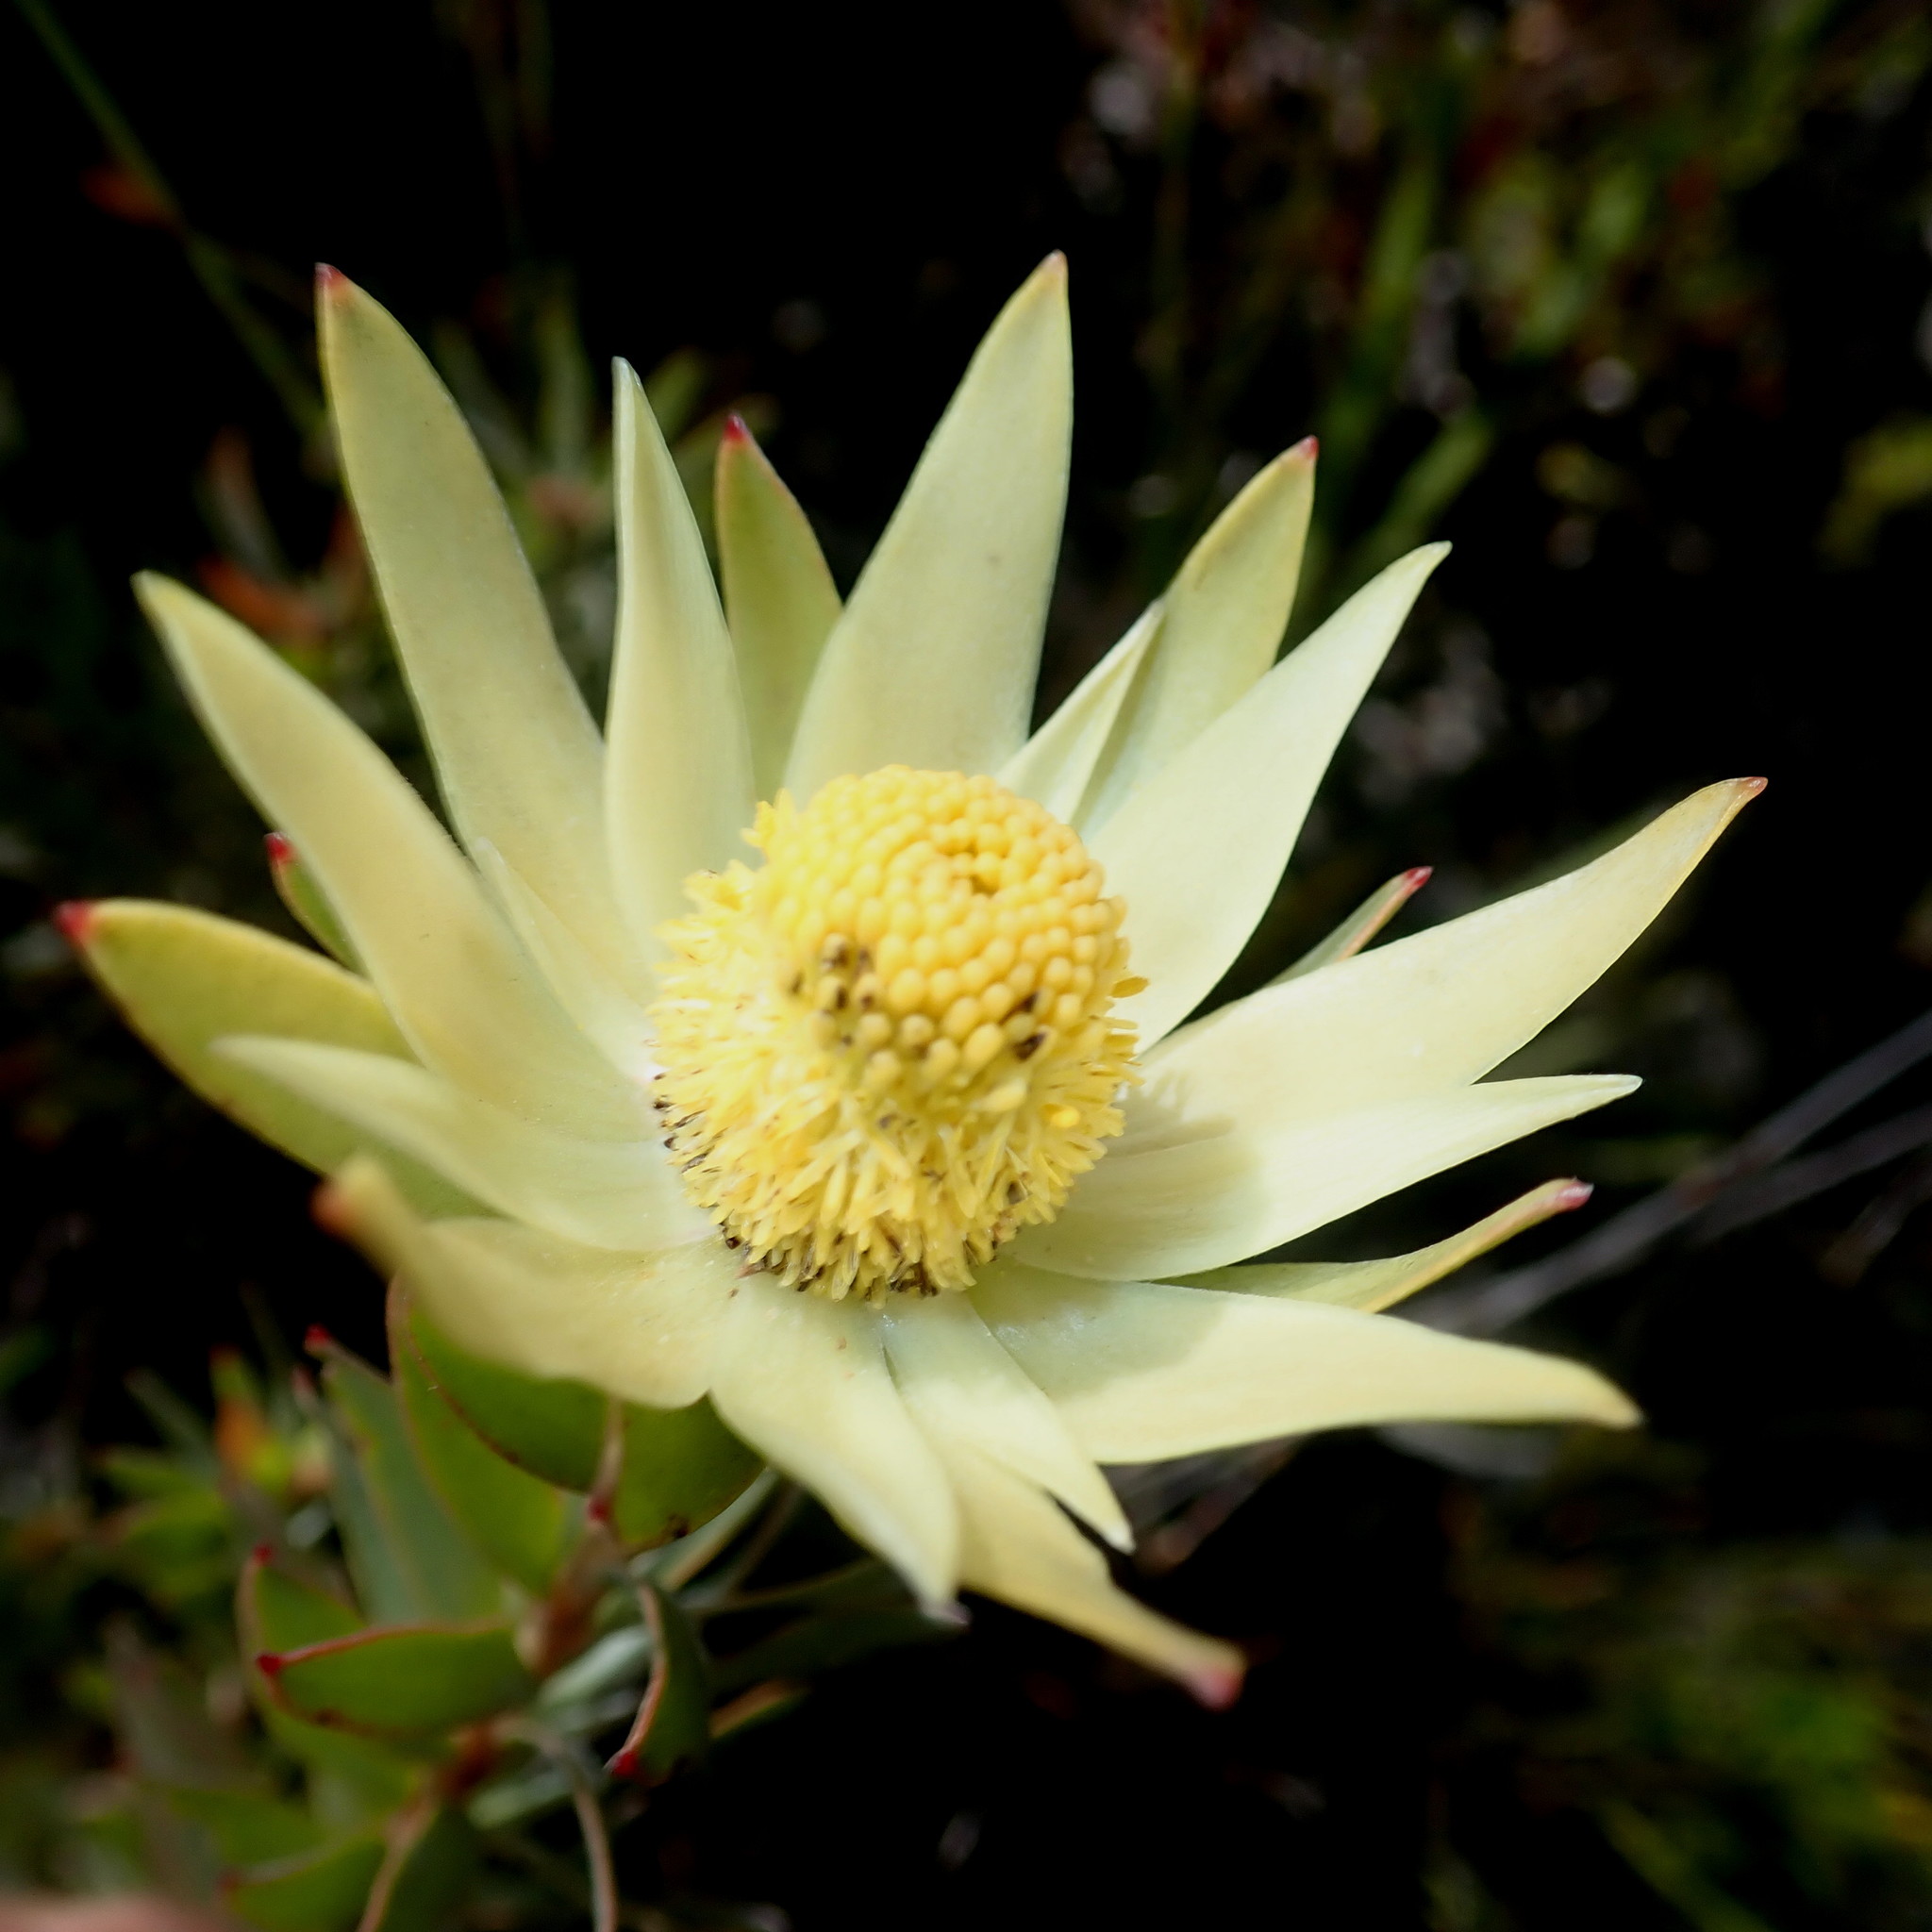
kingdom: Plantae
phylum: Tracheophyta
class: Magnoliopsida
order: Proteales
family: Proteaceae
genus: Leucadendron
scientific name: Leucadendron uliginosum
